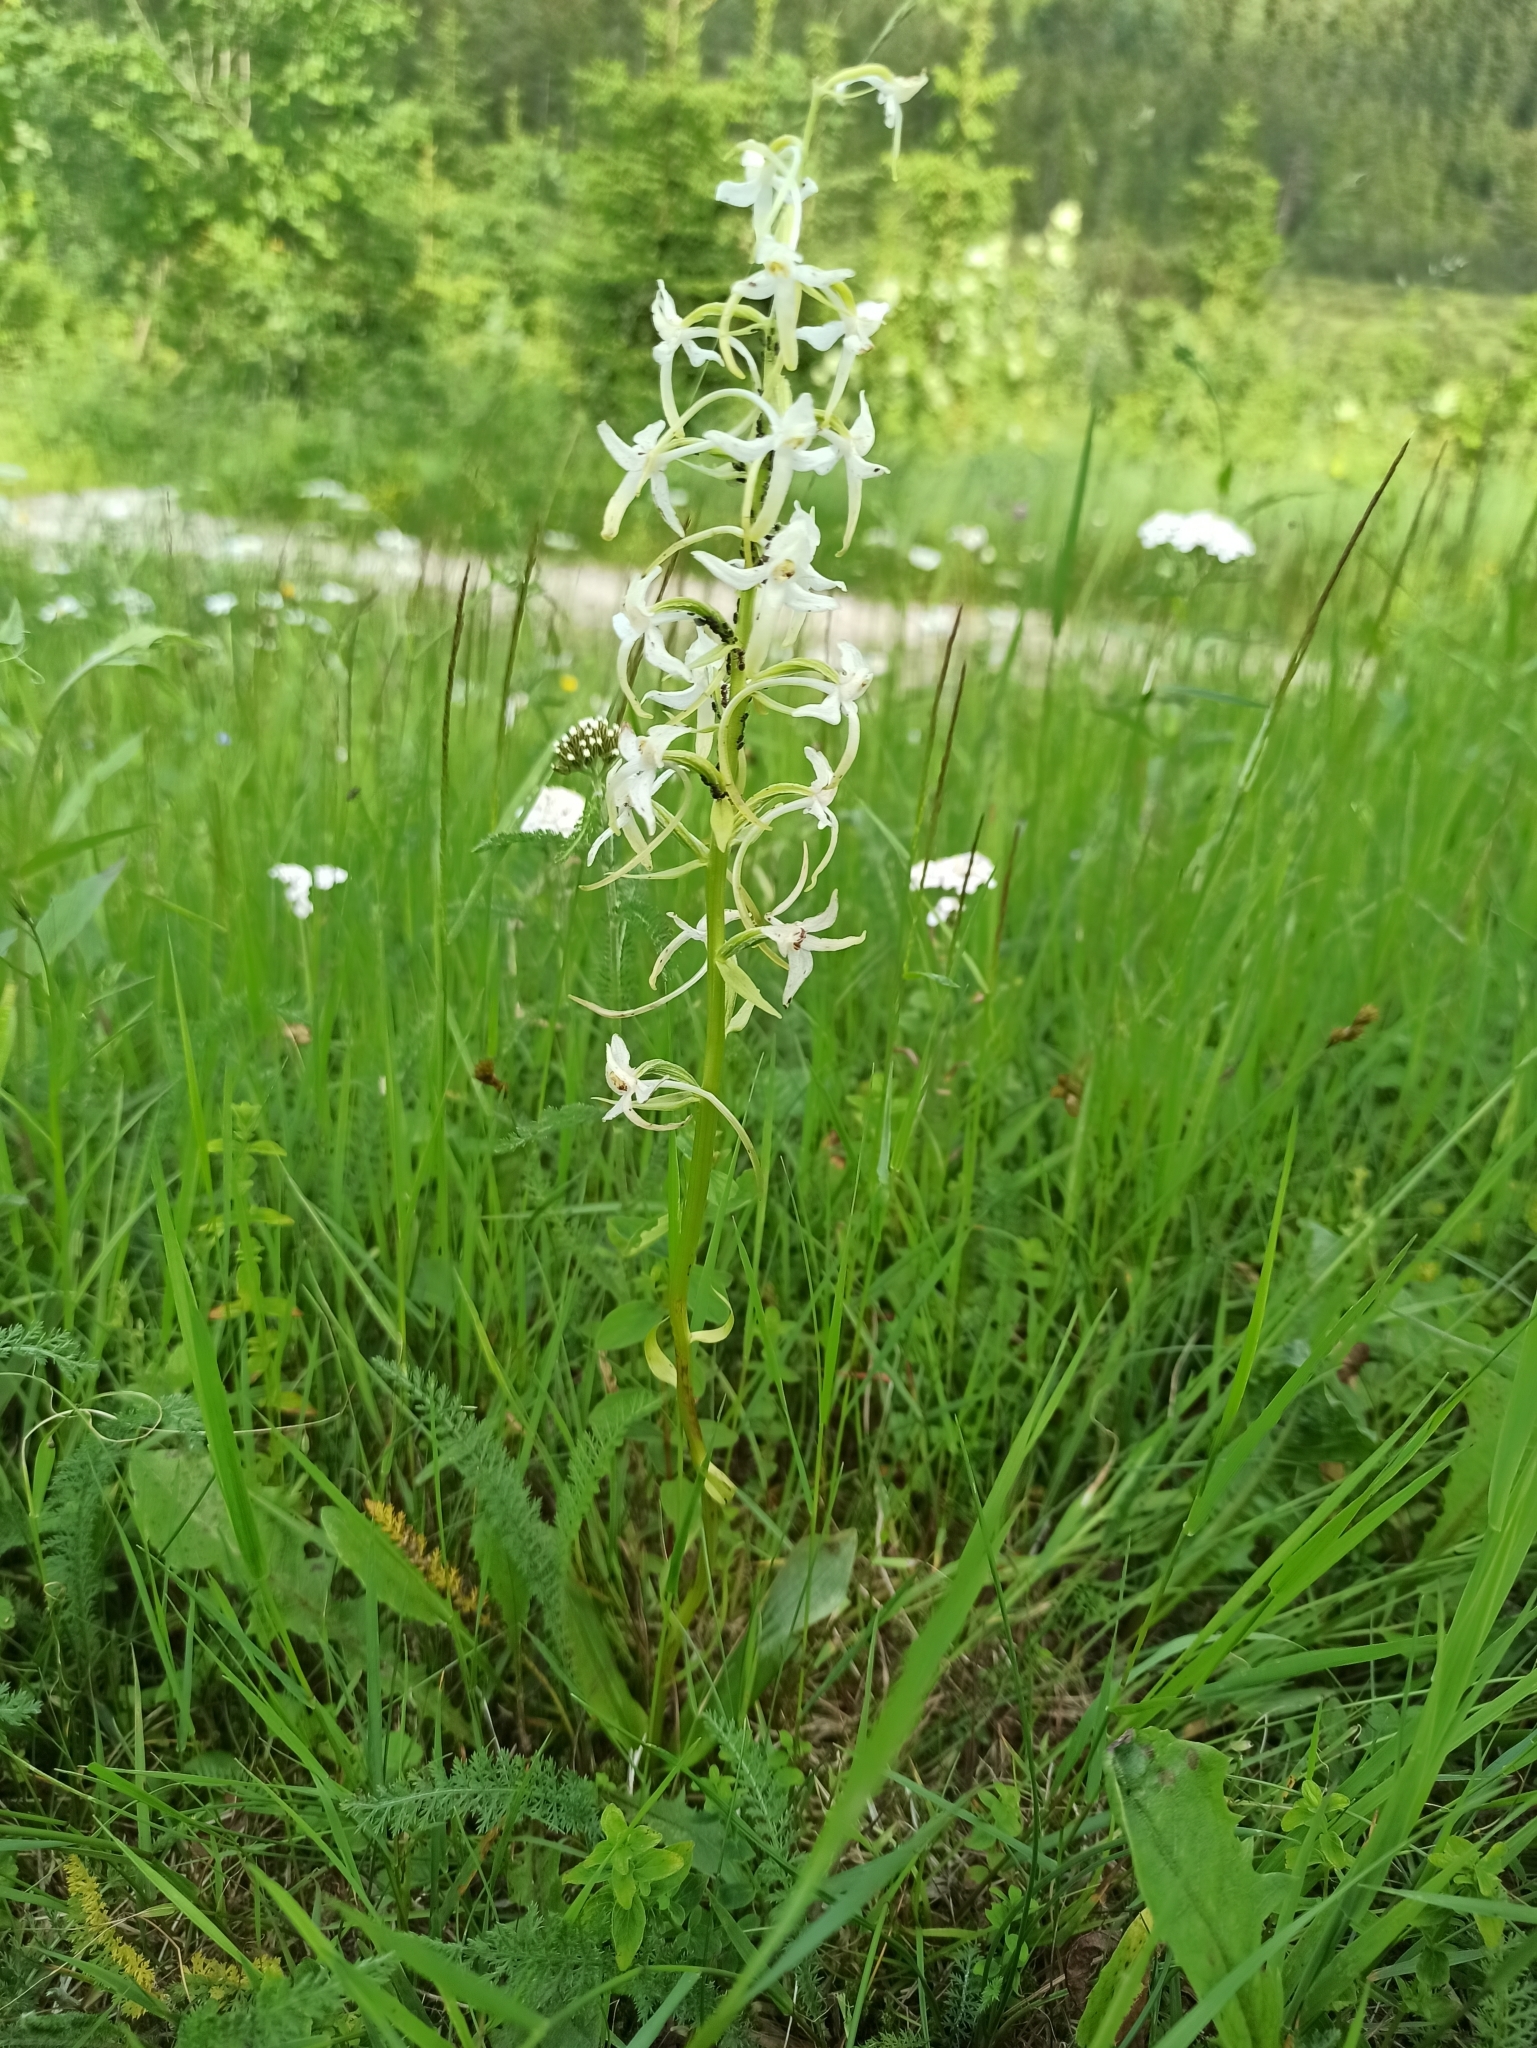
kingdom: Plantae
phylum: Tracheophyta
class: Liliopsida
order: Asparagales
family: Orchidaceae
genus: Platanthera
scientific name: Platanthera bifolia
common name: Lesser butterfly-orchid
